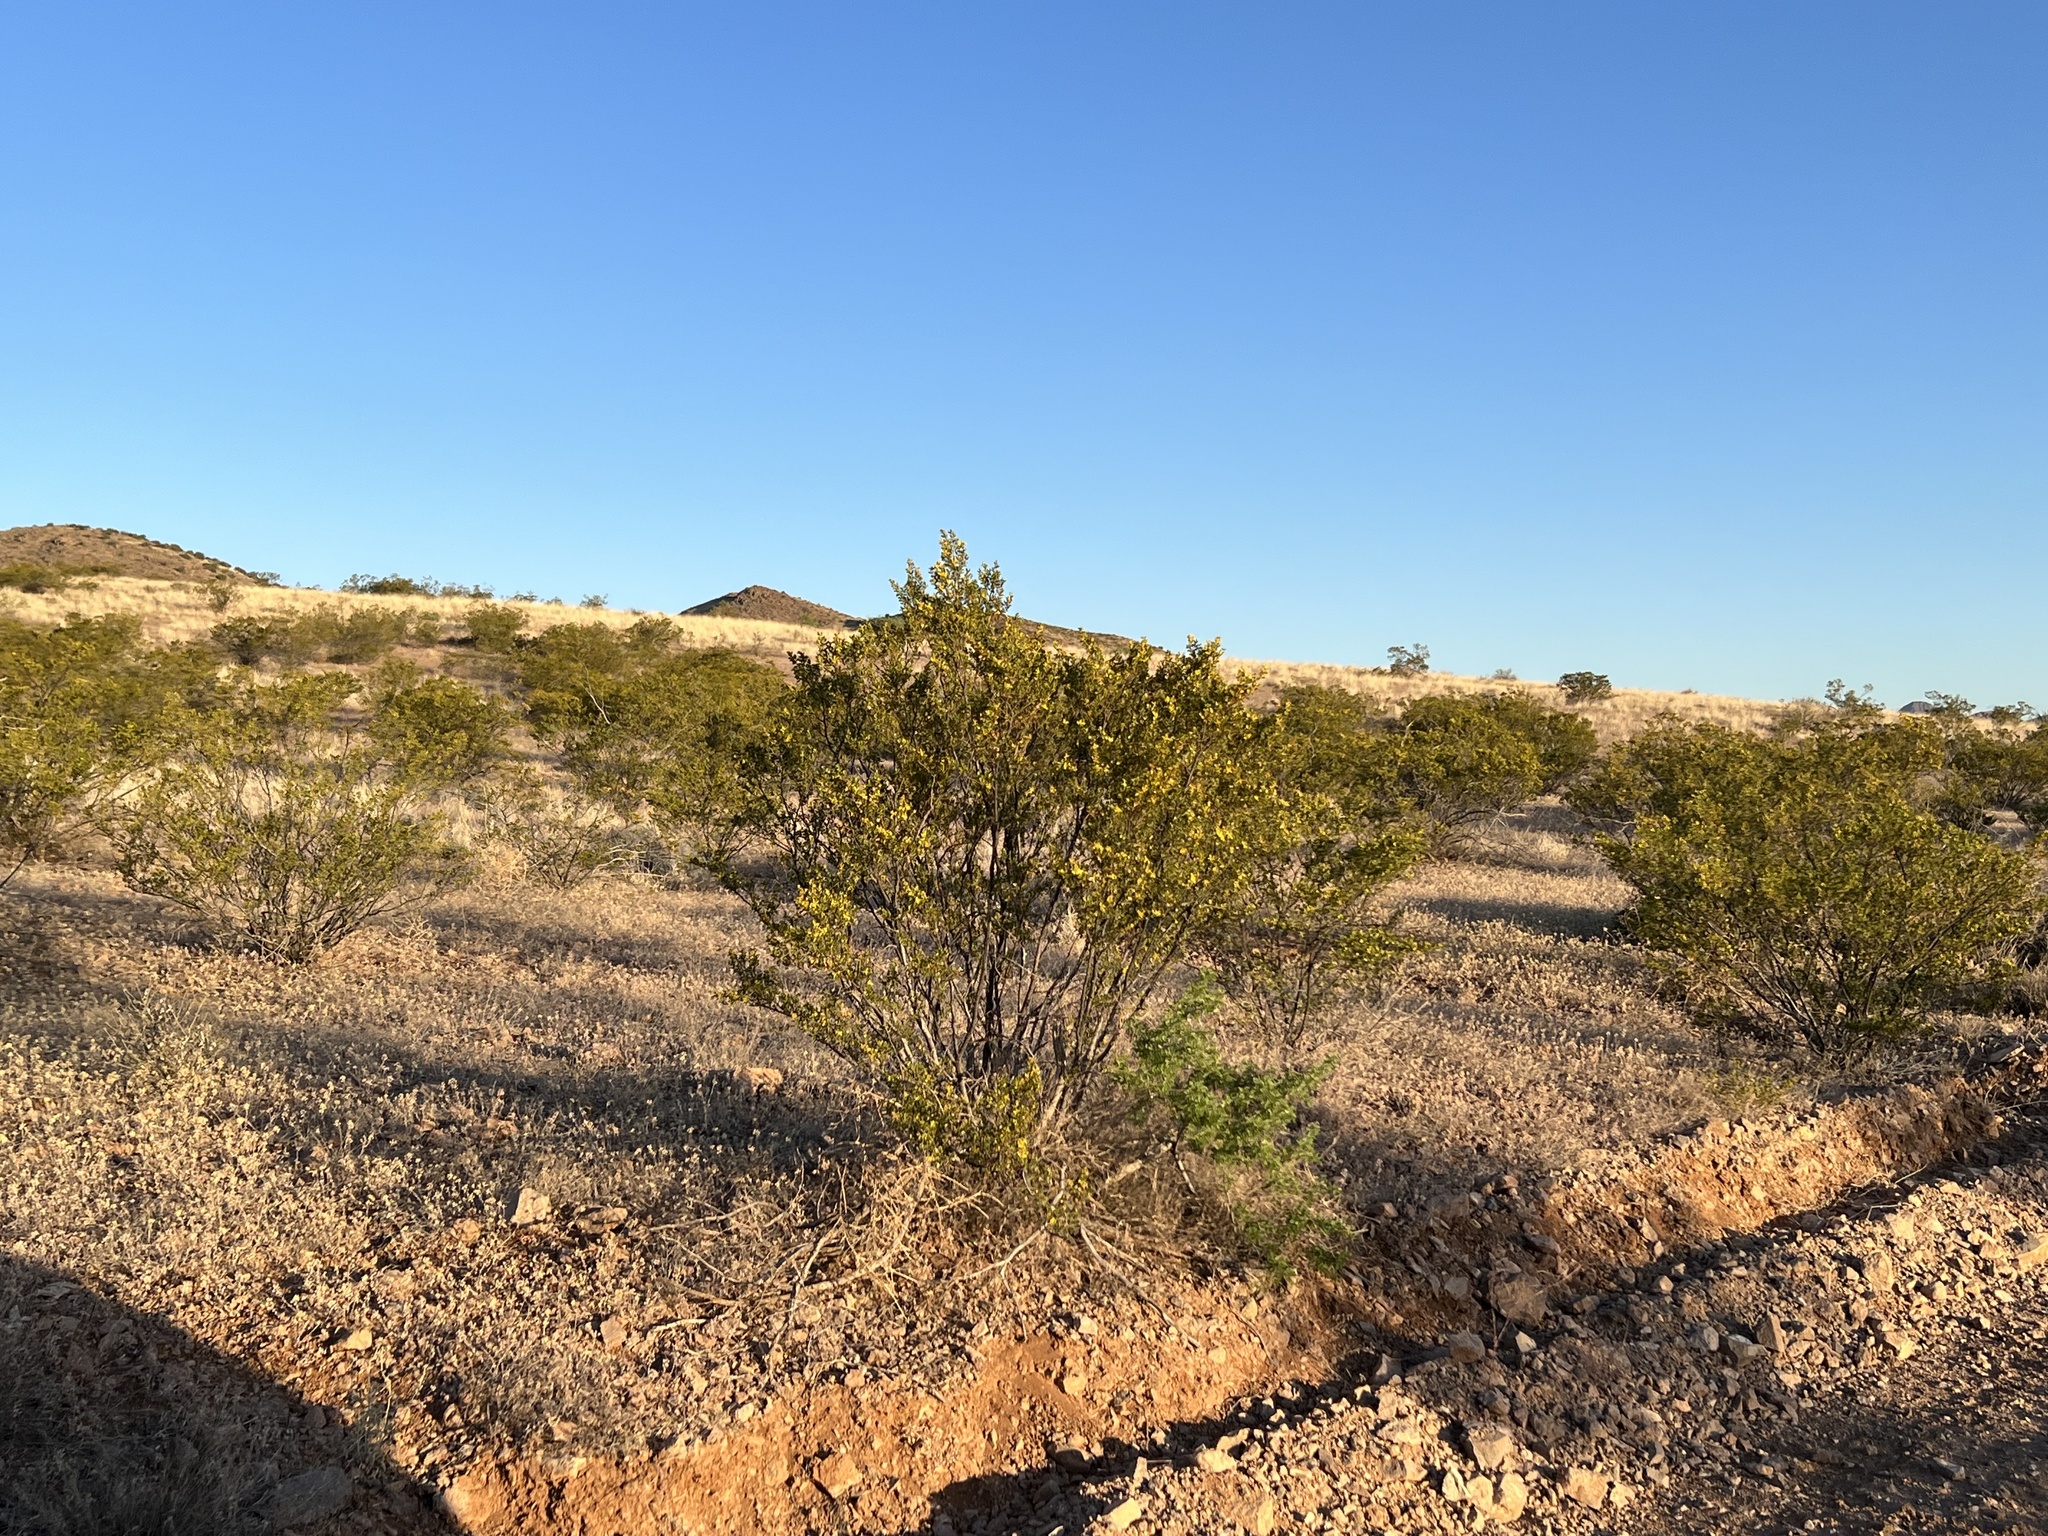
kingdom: Plantae
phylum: Tracheophyta
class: Magnoliopsida
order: Zygophyllales
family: Zygophyllaceae
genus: Larrea
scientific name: Larrea tridentata
